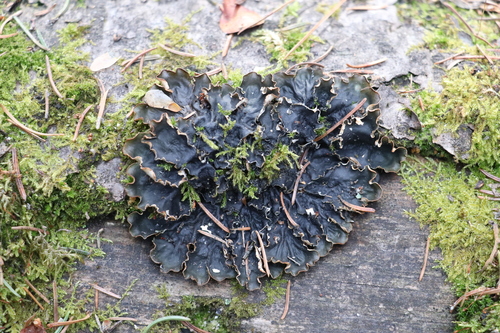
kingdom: Fungi
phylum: Ascomycota
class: Lecanoromycetes
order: Peltigerales
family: Peltigeraceae
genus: Peltigera
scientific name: Peltigera
